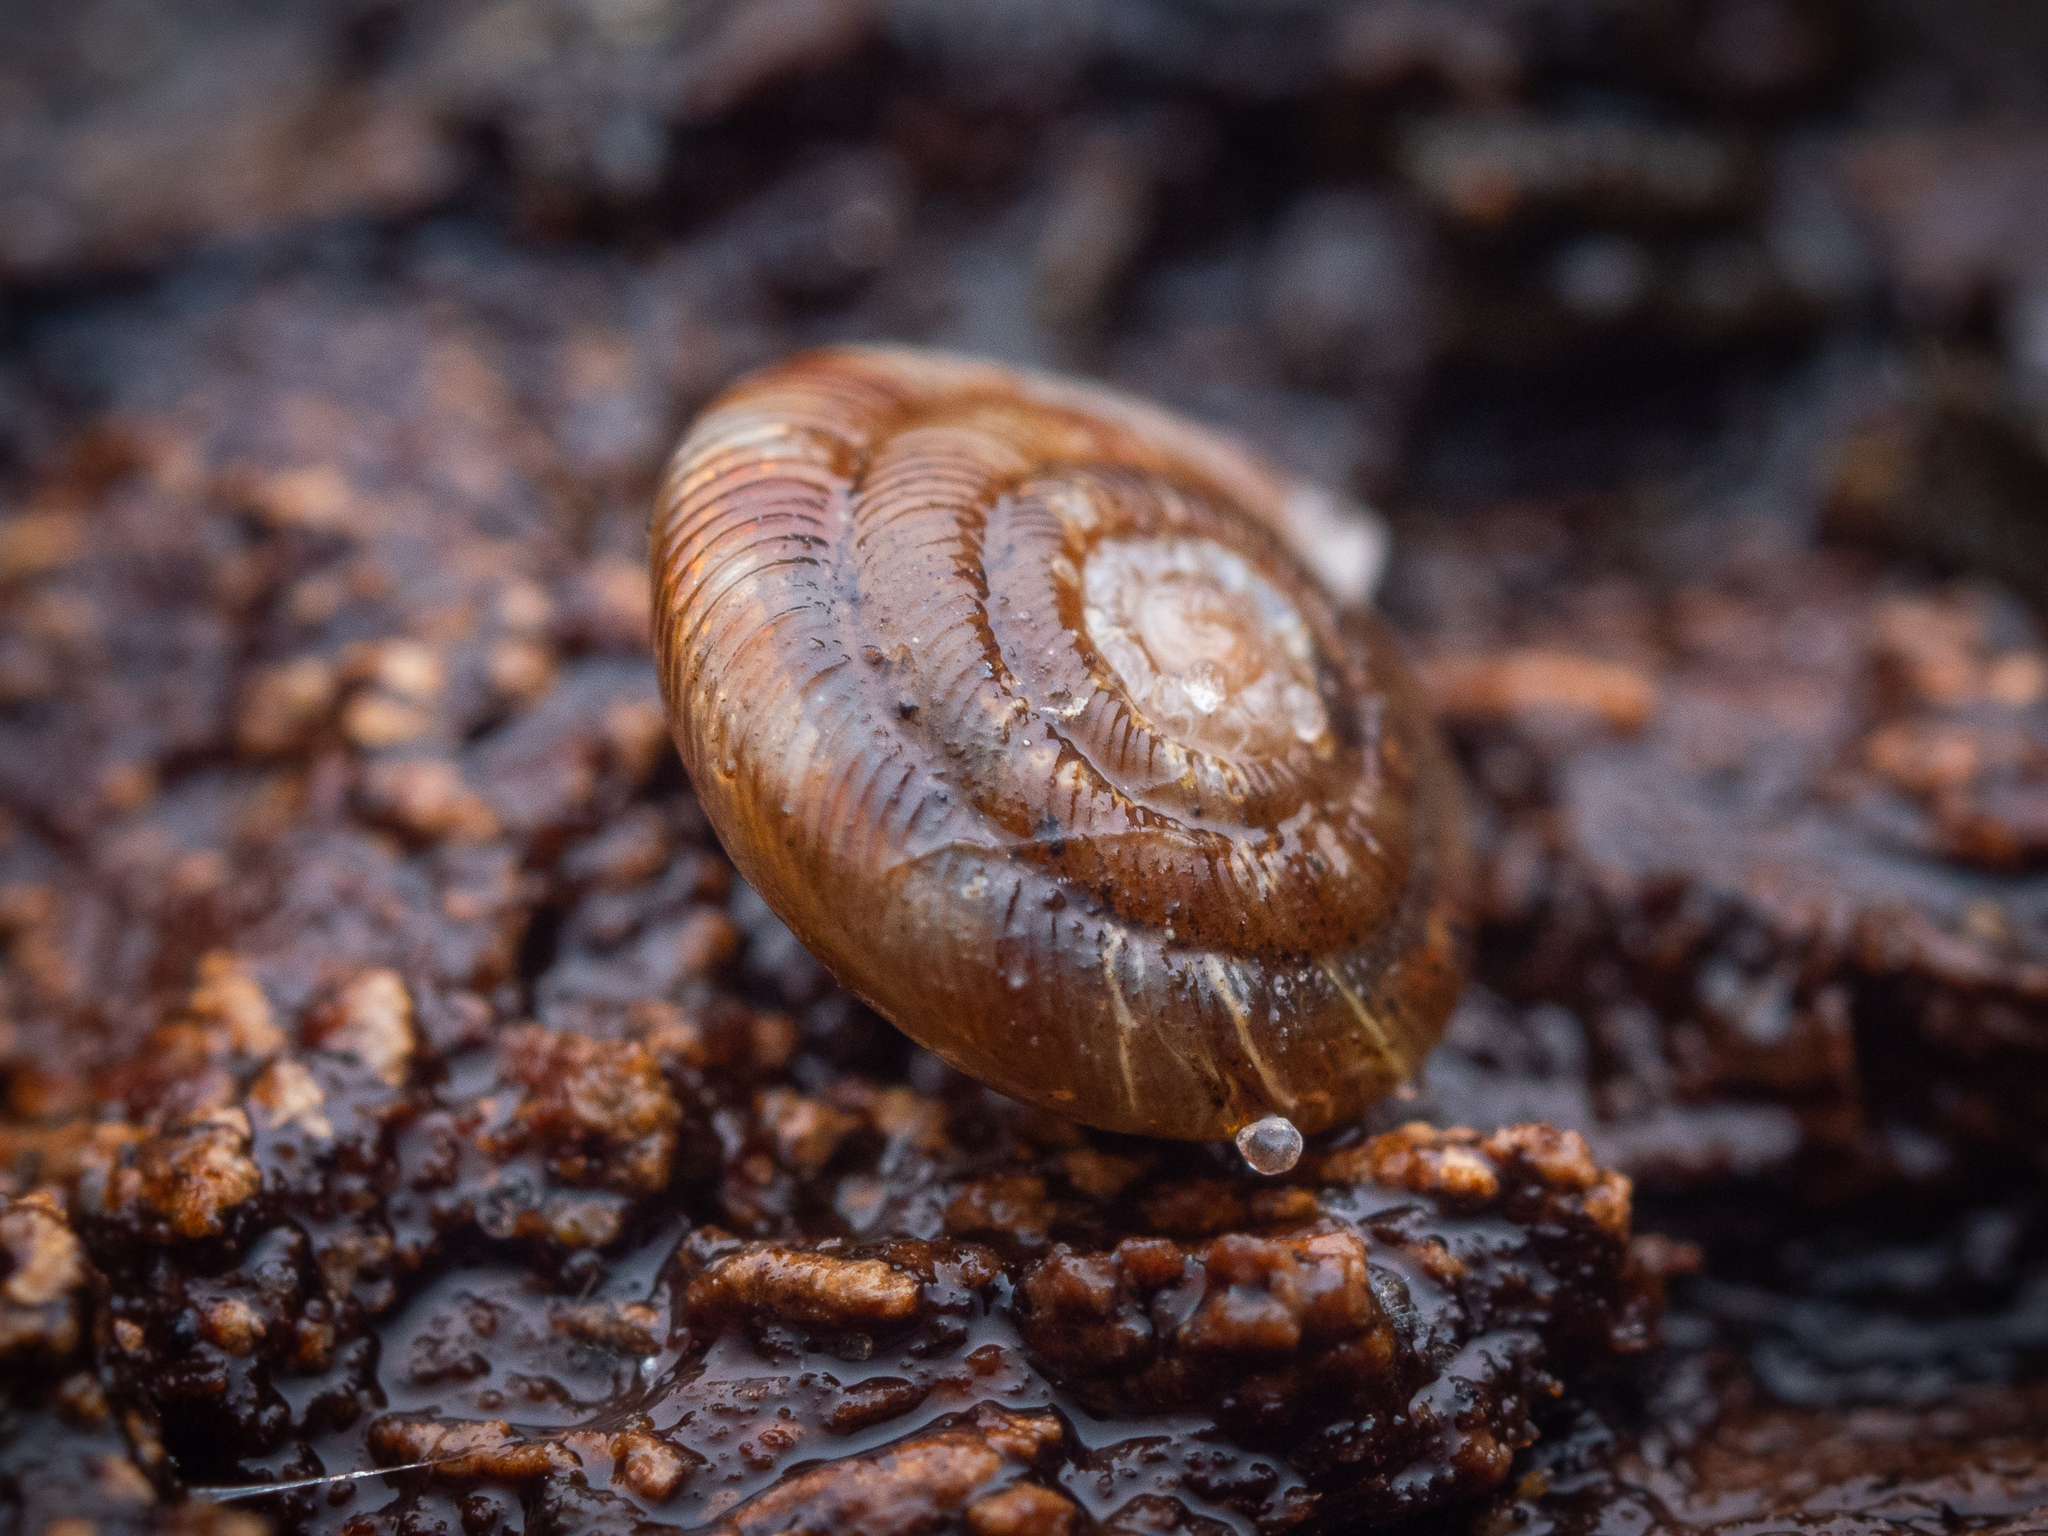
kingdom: Animalia
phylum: Mollusca
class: Gastropoda
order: Stylommatophora
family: Discidae
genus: Discus
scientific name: Discus rotundatus
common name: Rounded snail
